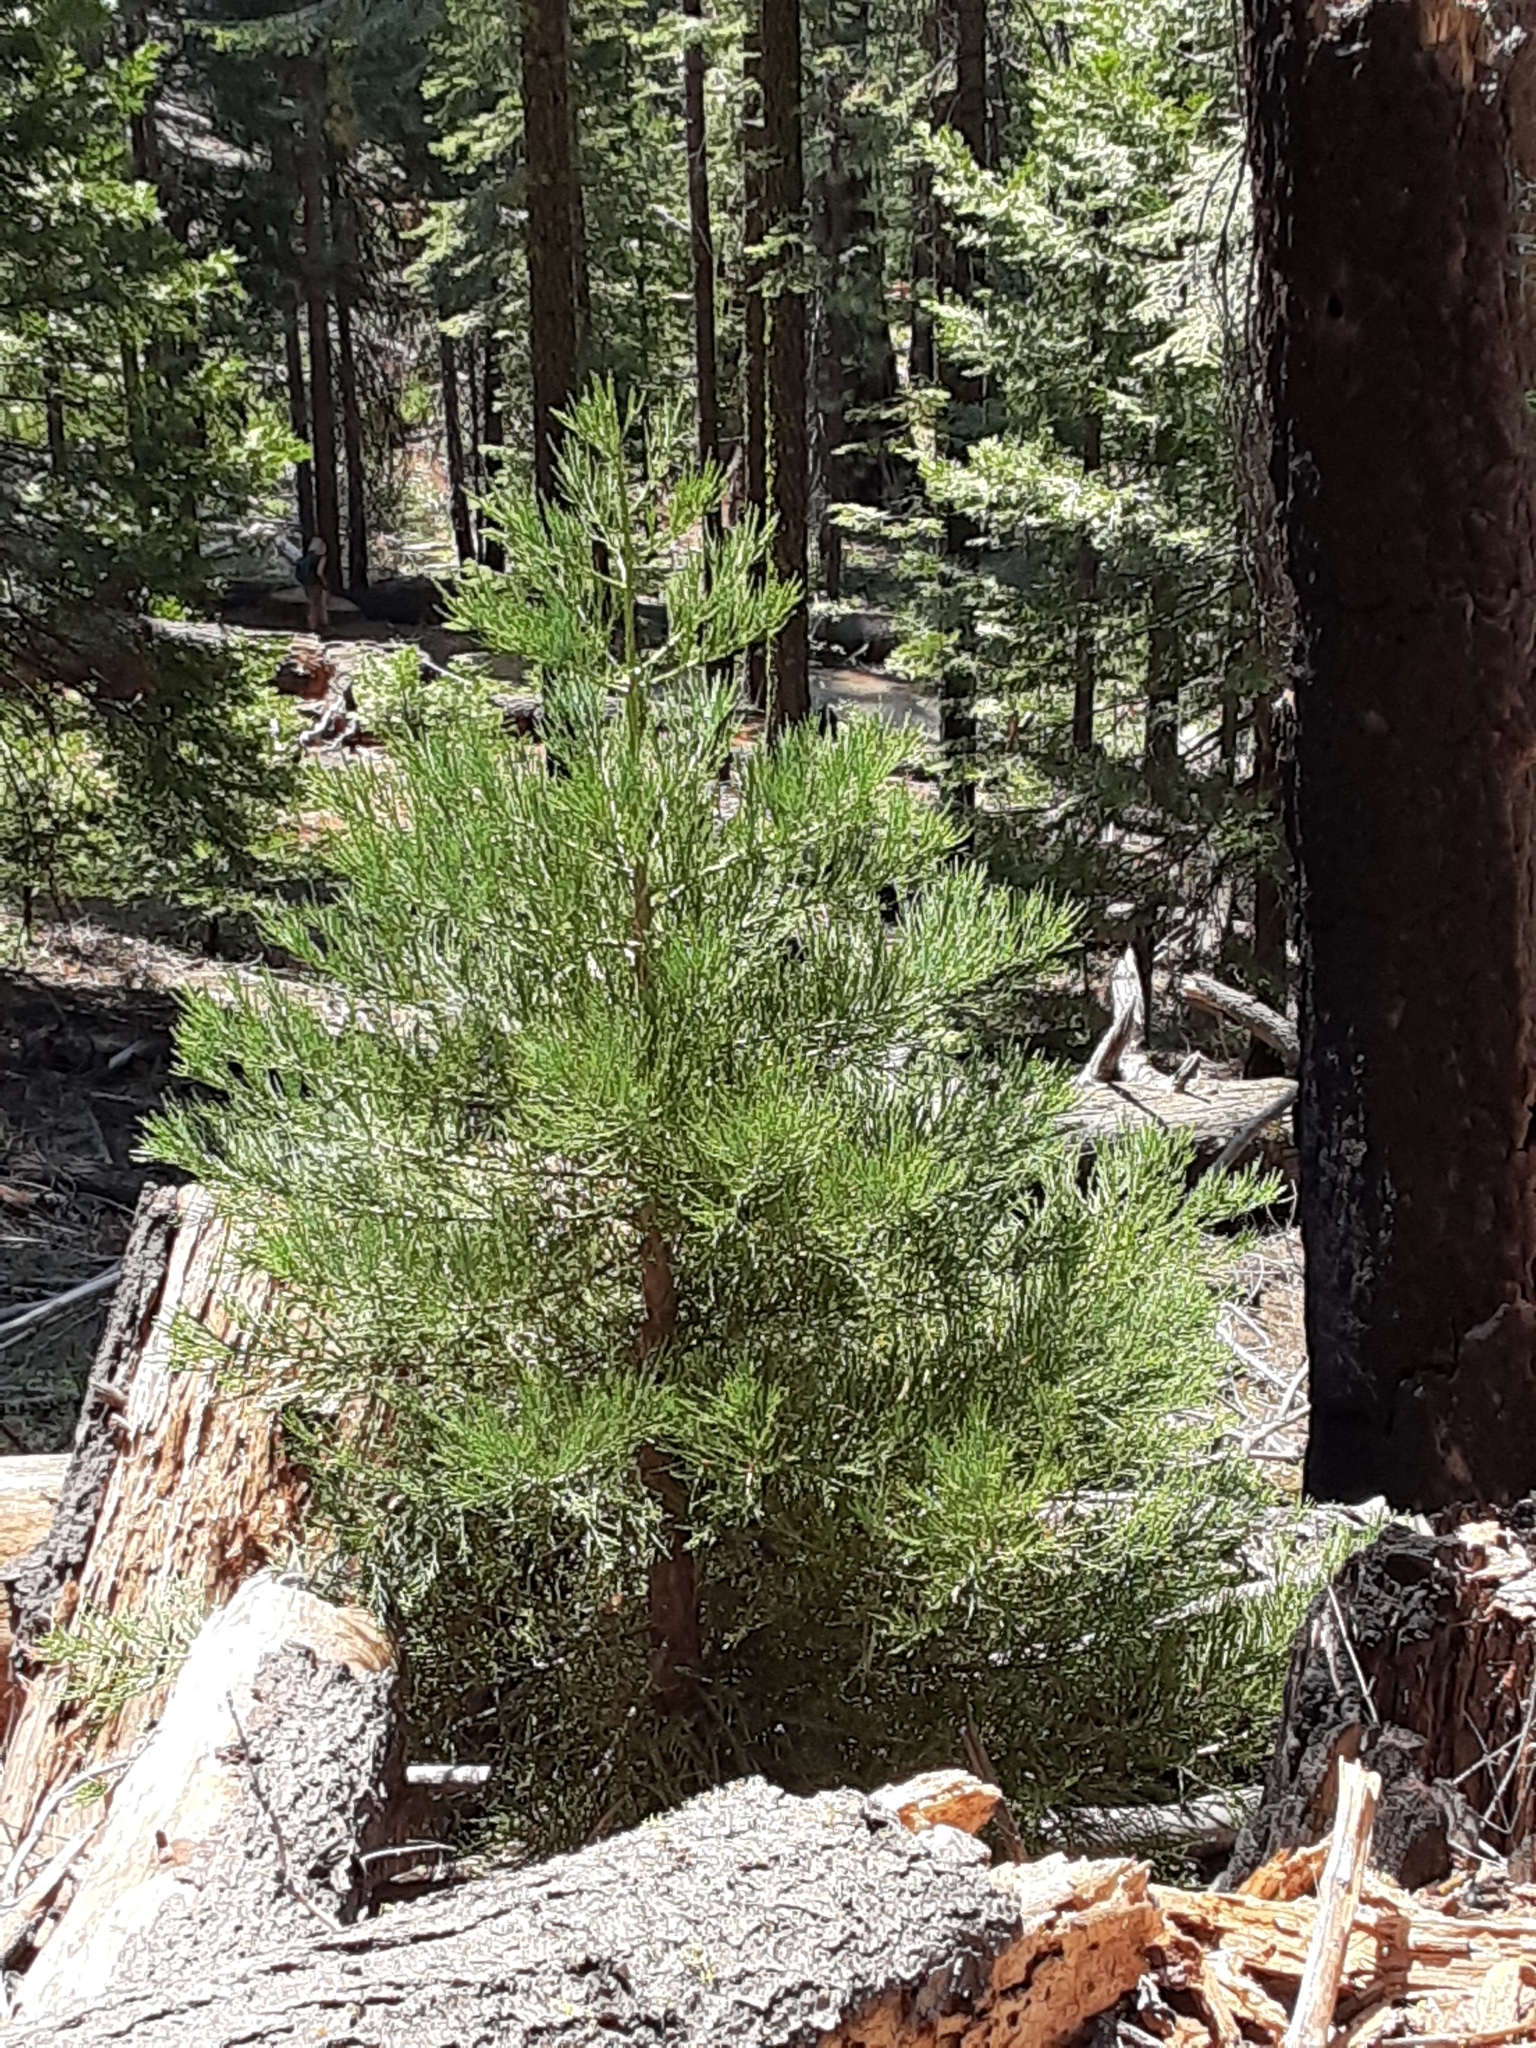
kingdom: Plantae
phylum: Tracheophyta
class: Pinopsida
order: Pinales
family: Cupressaceae
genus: Sequoiadendron
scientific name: Sequoiadendron giganteum
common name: Wellingtonia
